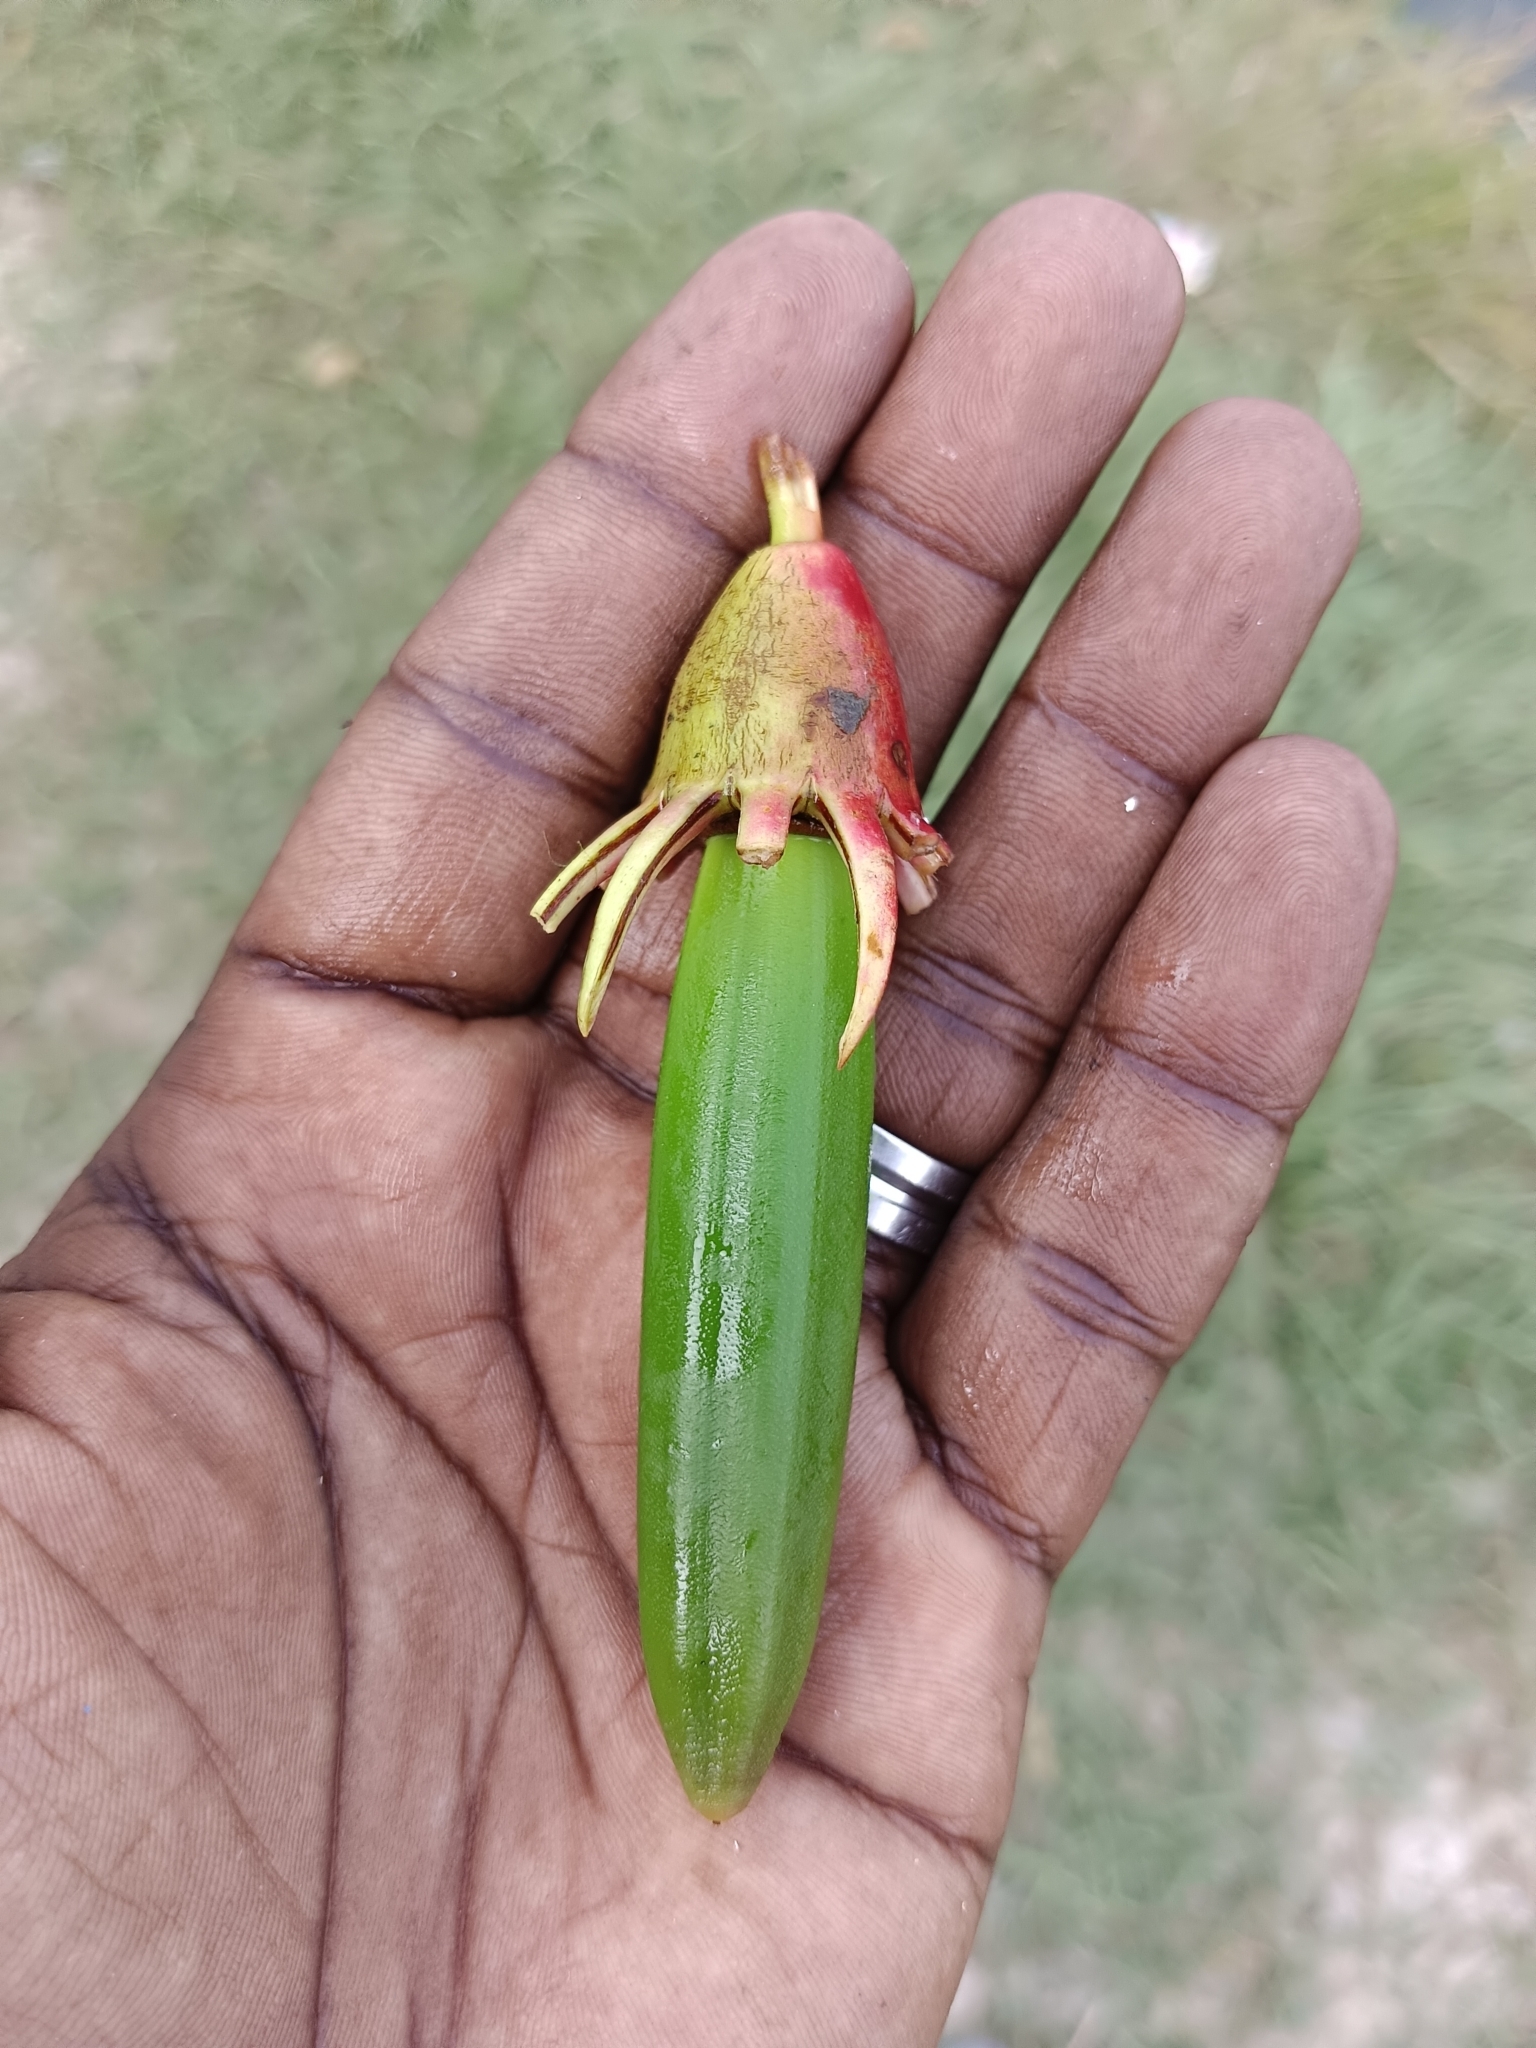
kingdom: Plantae
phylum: Tracheophyta
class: Magnoliopsida
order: Malpighiales
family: Rhizophoraceae
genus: Bruguiera
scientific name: Bruguiera gymnorhiza
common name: Oriental mangrove
